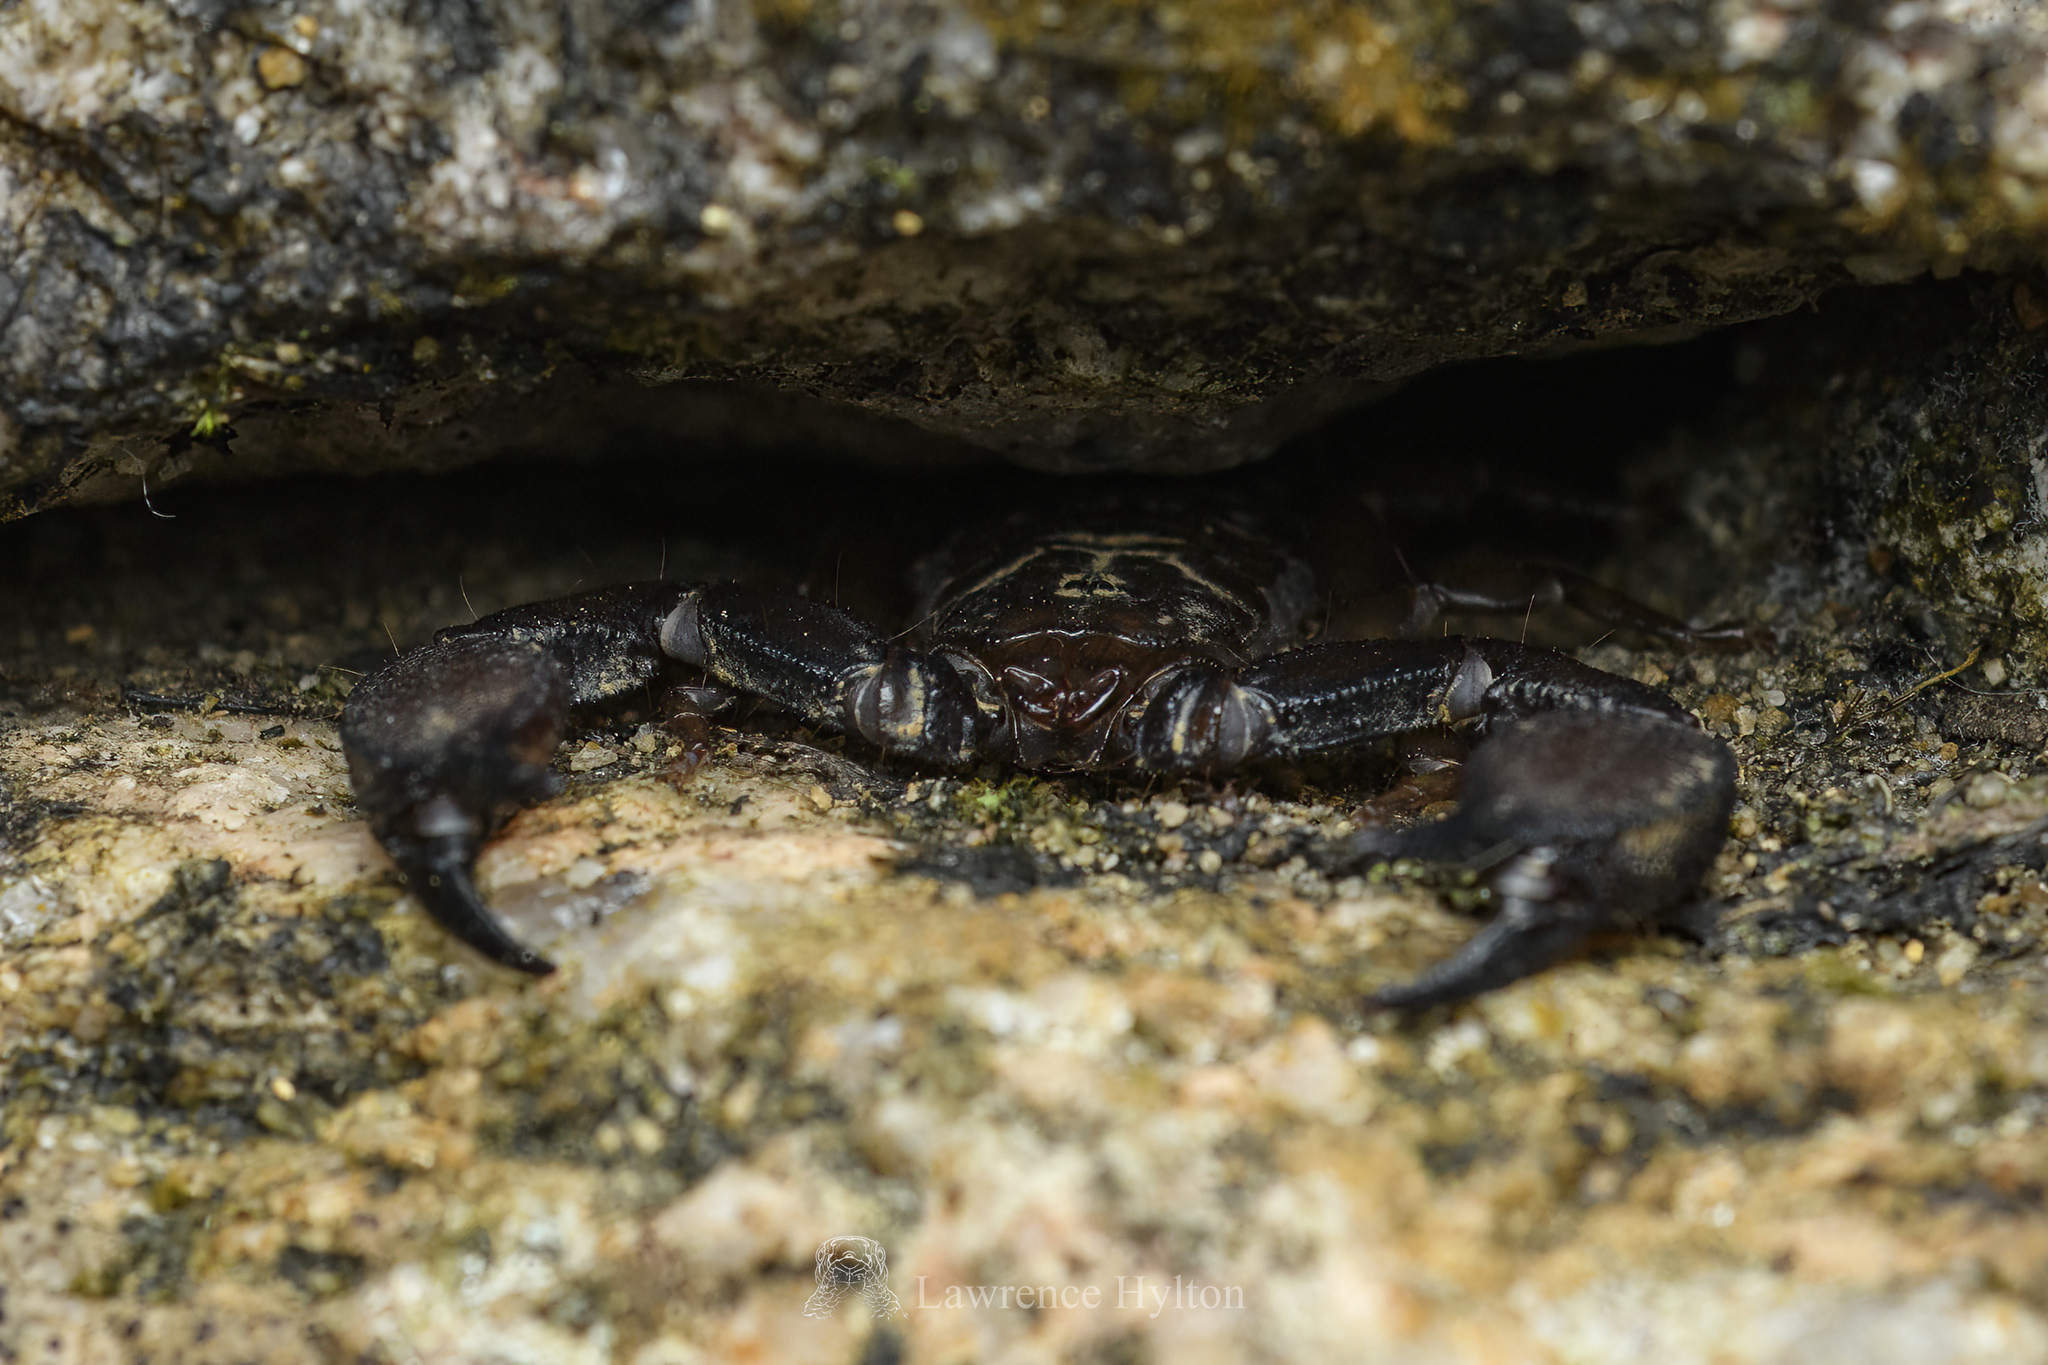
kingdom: Animalia
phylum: Arthropoda
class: Arachnida
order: Scorpiones
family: Hormuridae
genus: Liocheles
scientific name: Liocheles australasiae
